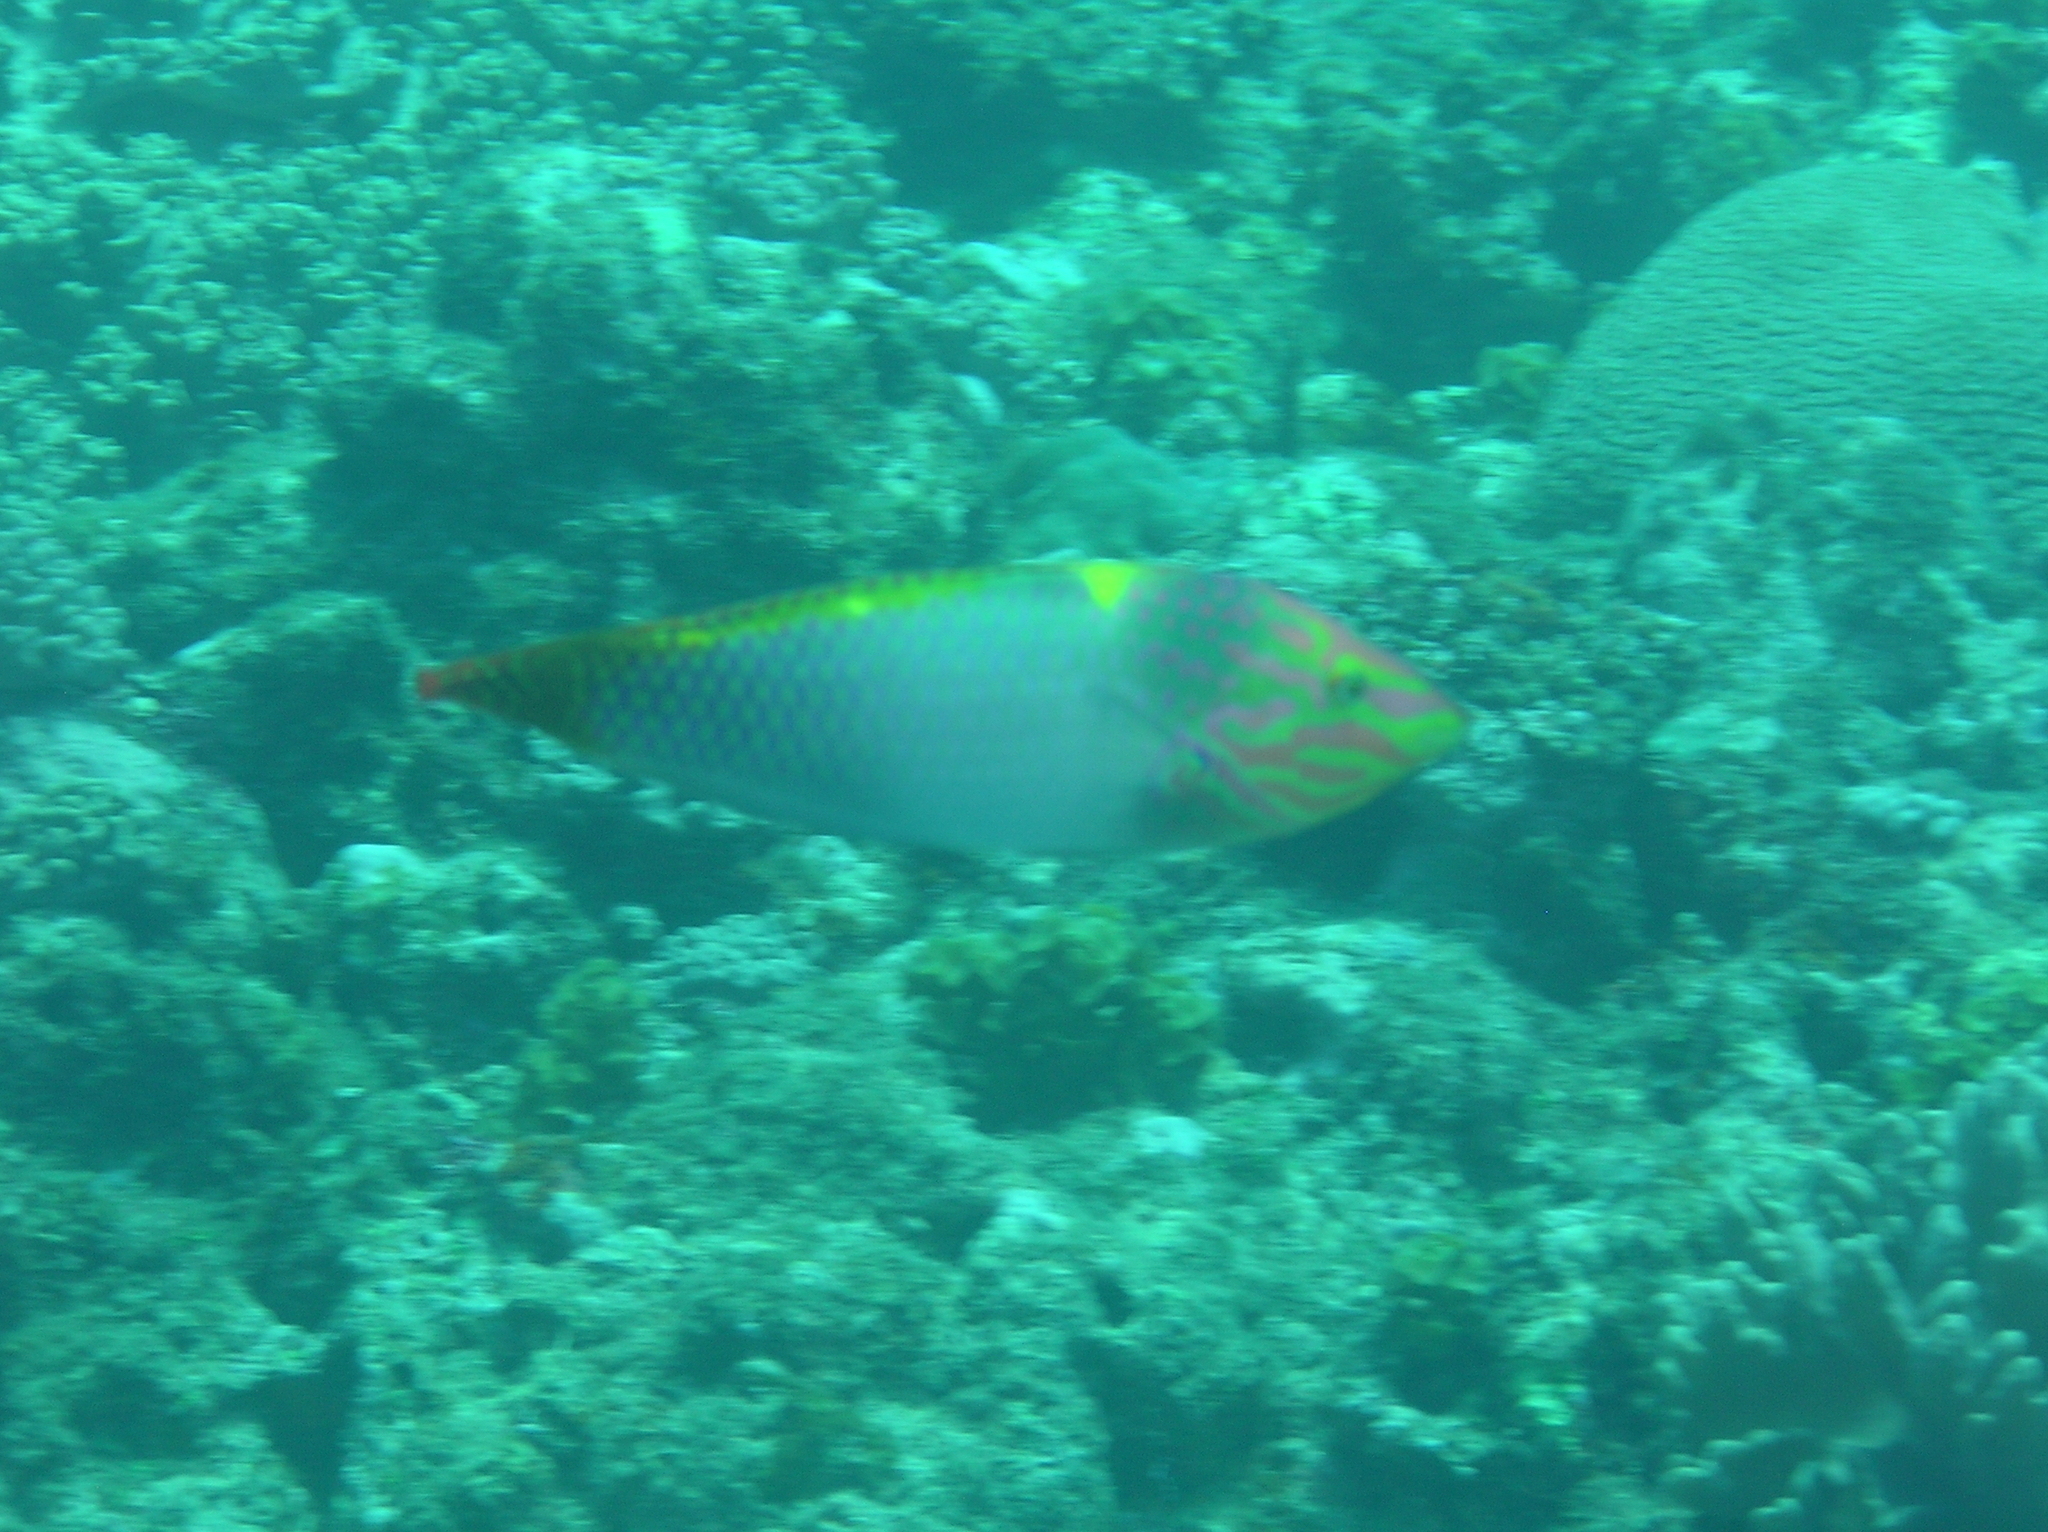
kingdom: Animalia
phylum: Chordata
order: Perciformes
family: Labridae
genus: Halichoeres
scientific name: Halichoeres hortulanus
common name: Checkerboard wrasse
